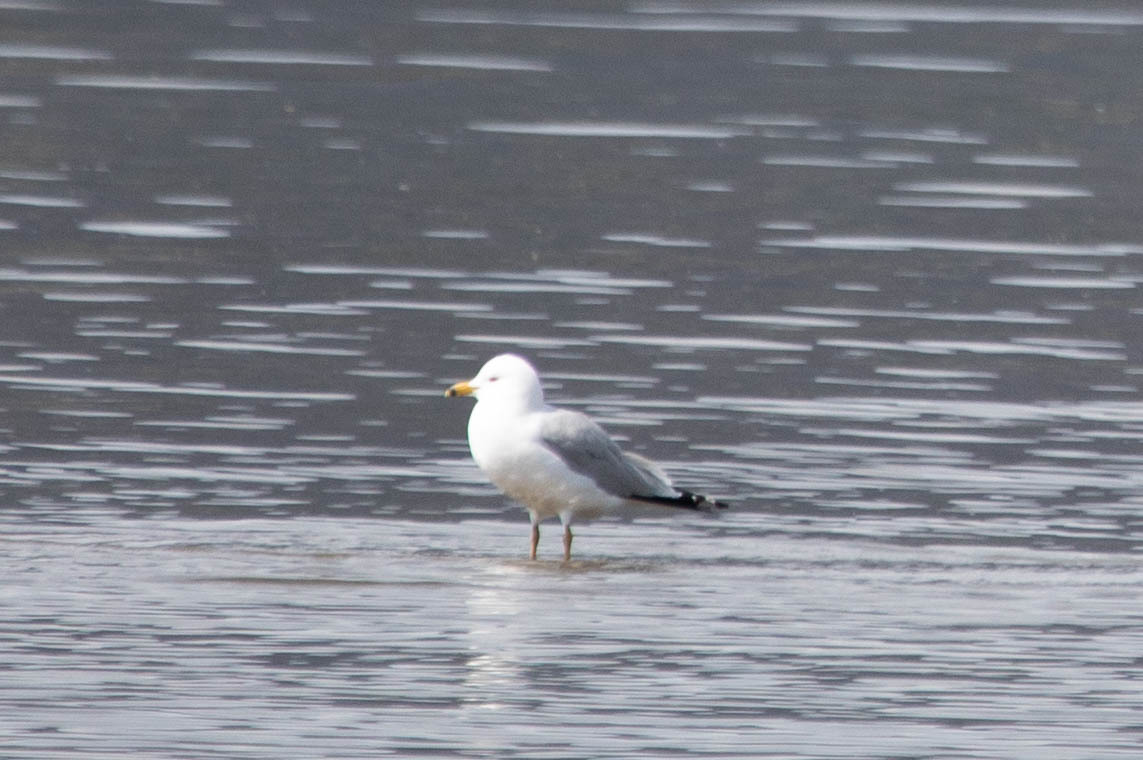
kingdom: Animalia
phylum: Chordata
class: Aves
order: Charadriiformes
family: Laridae
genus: Larus
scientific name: Larus delawarensis
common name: Ring-billed gull
